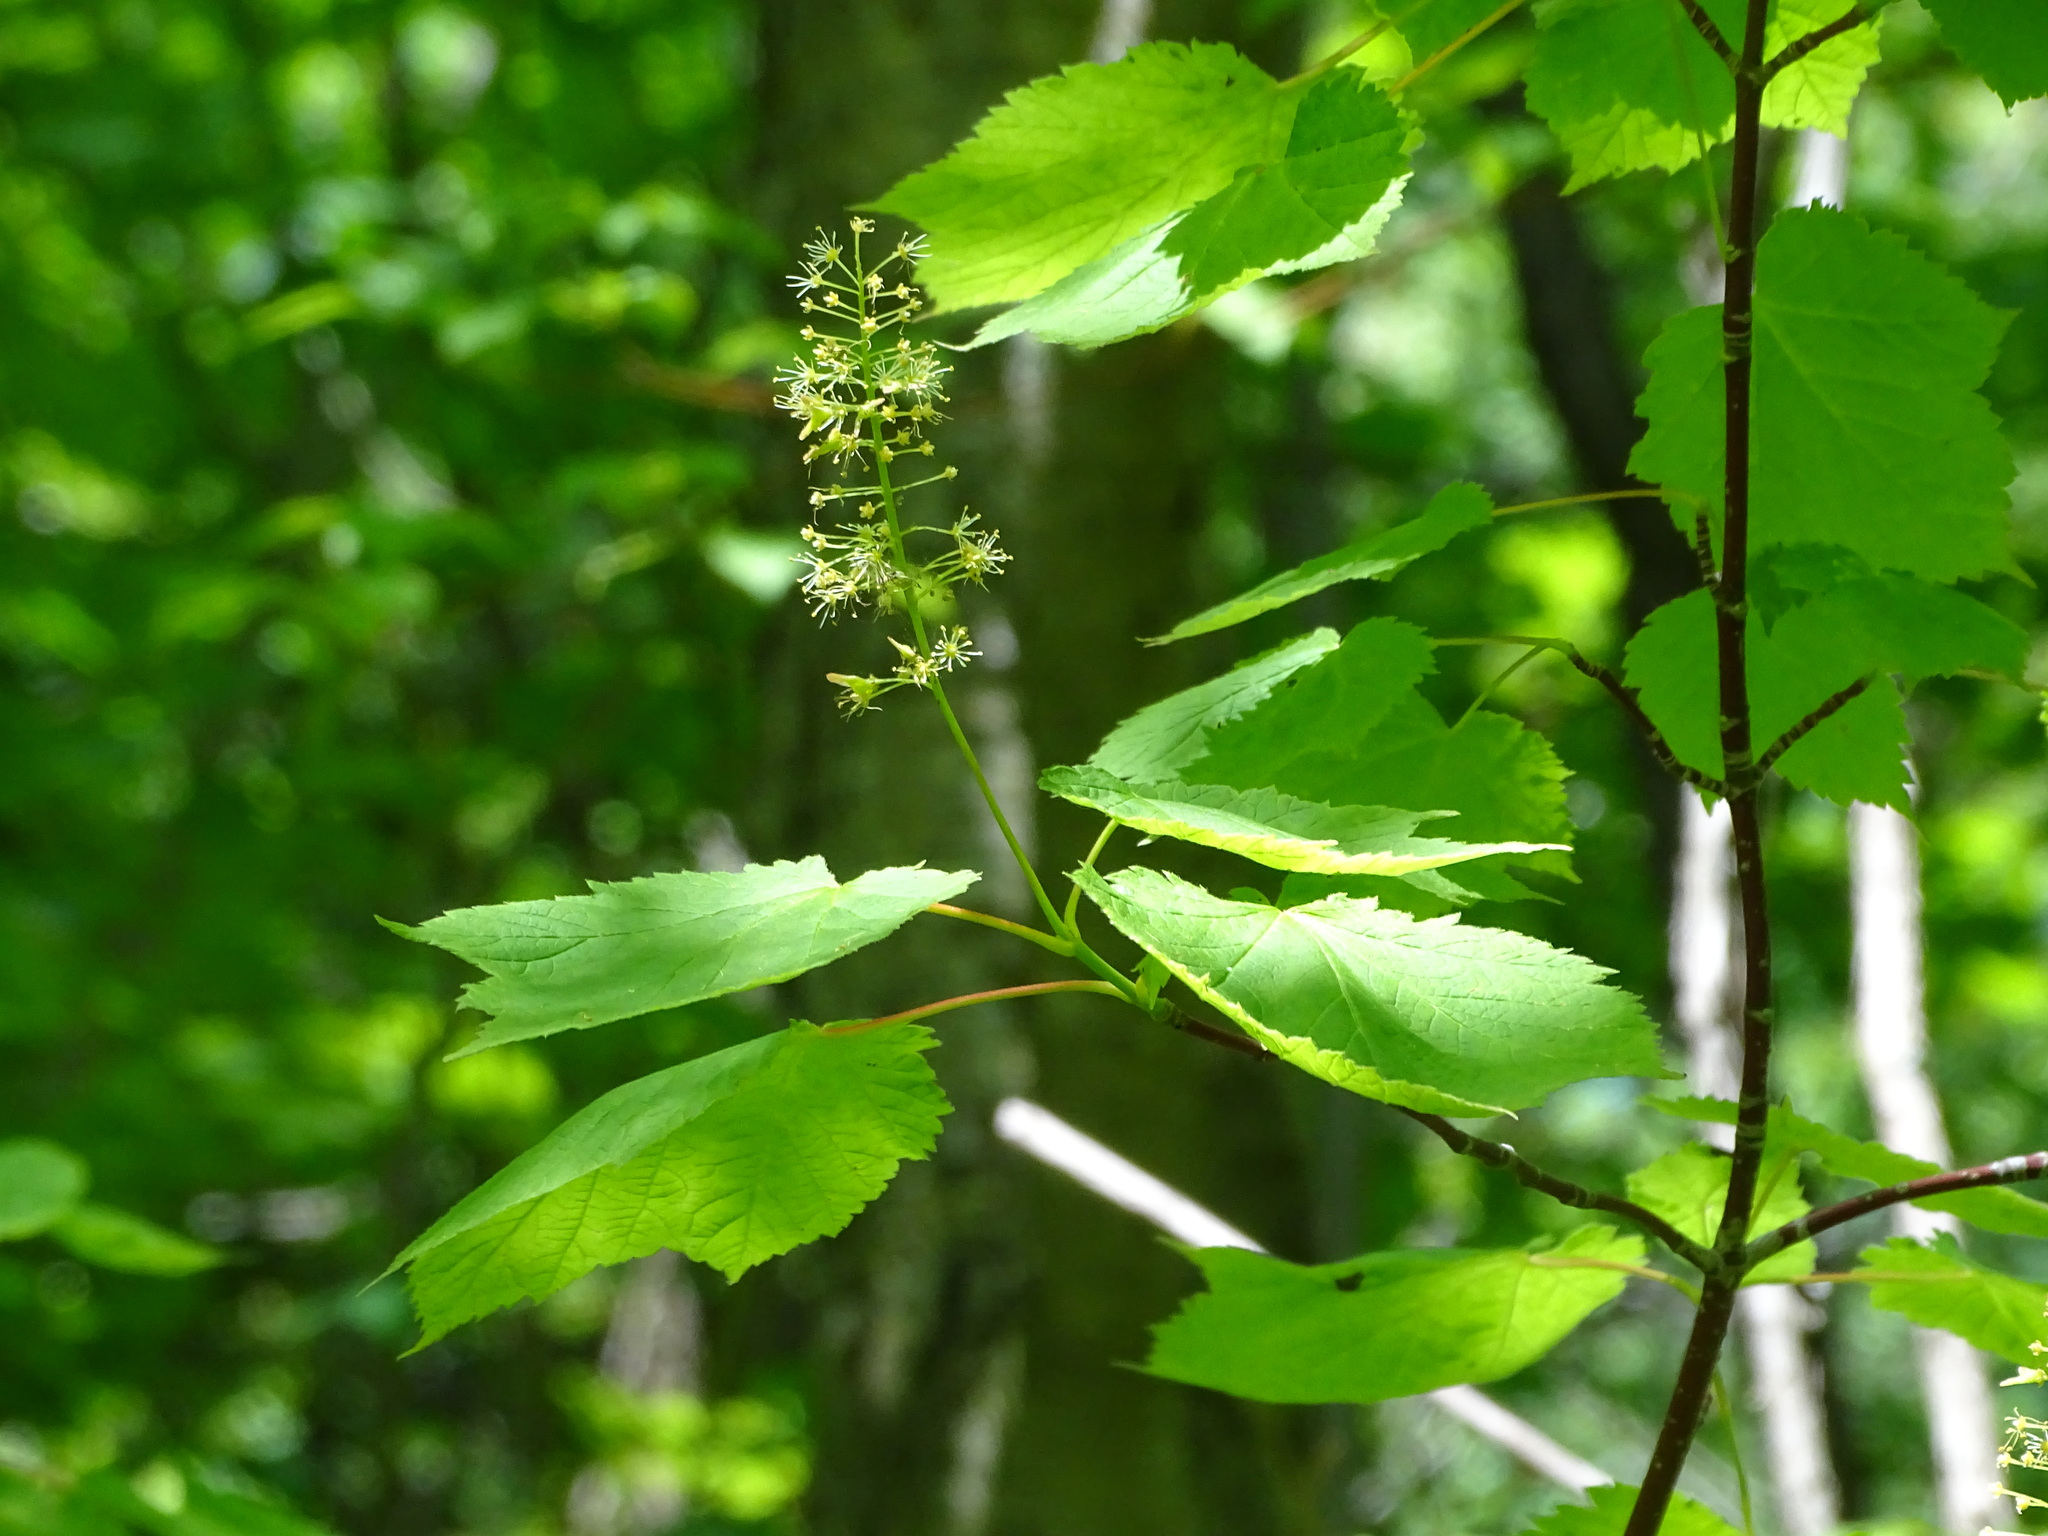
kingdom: Plantae
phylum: Tracheophyta
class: Magnoliopsida
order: Sapindales
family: Sapindaceae
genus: Acer
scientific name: Acer spicatum
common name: Mountain maple
